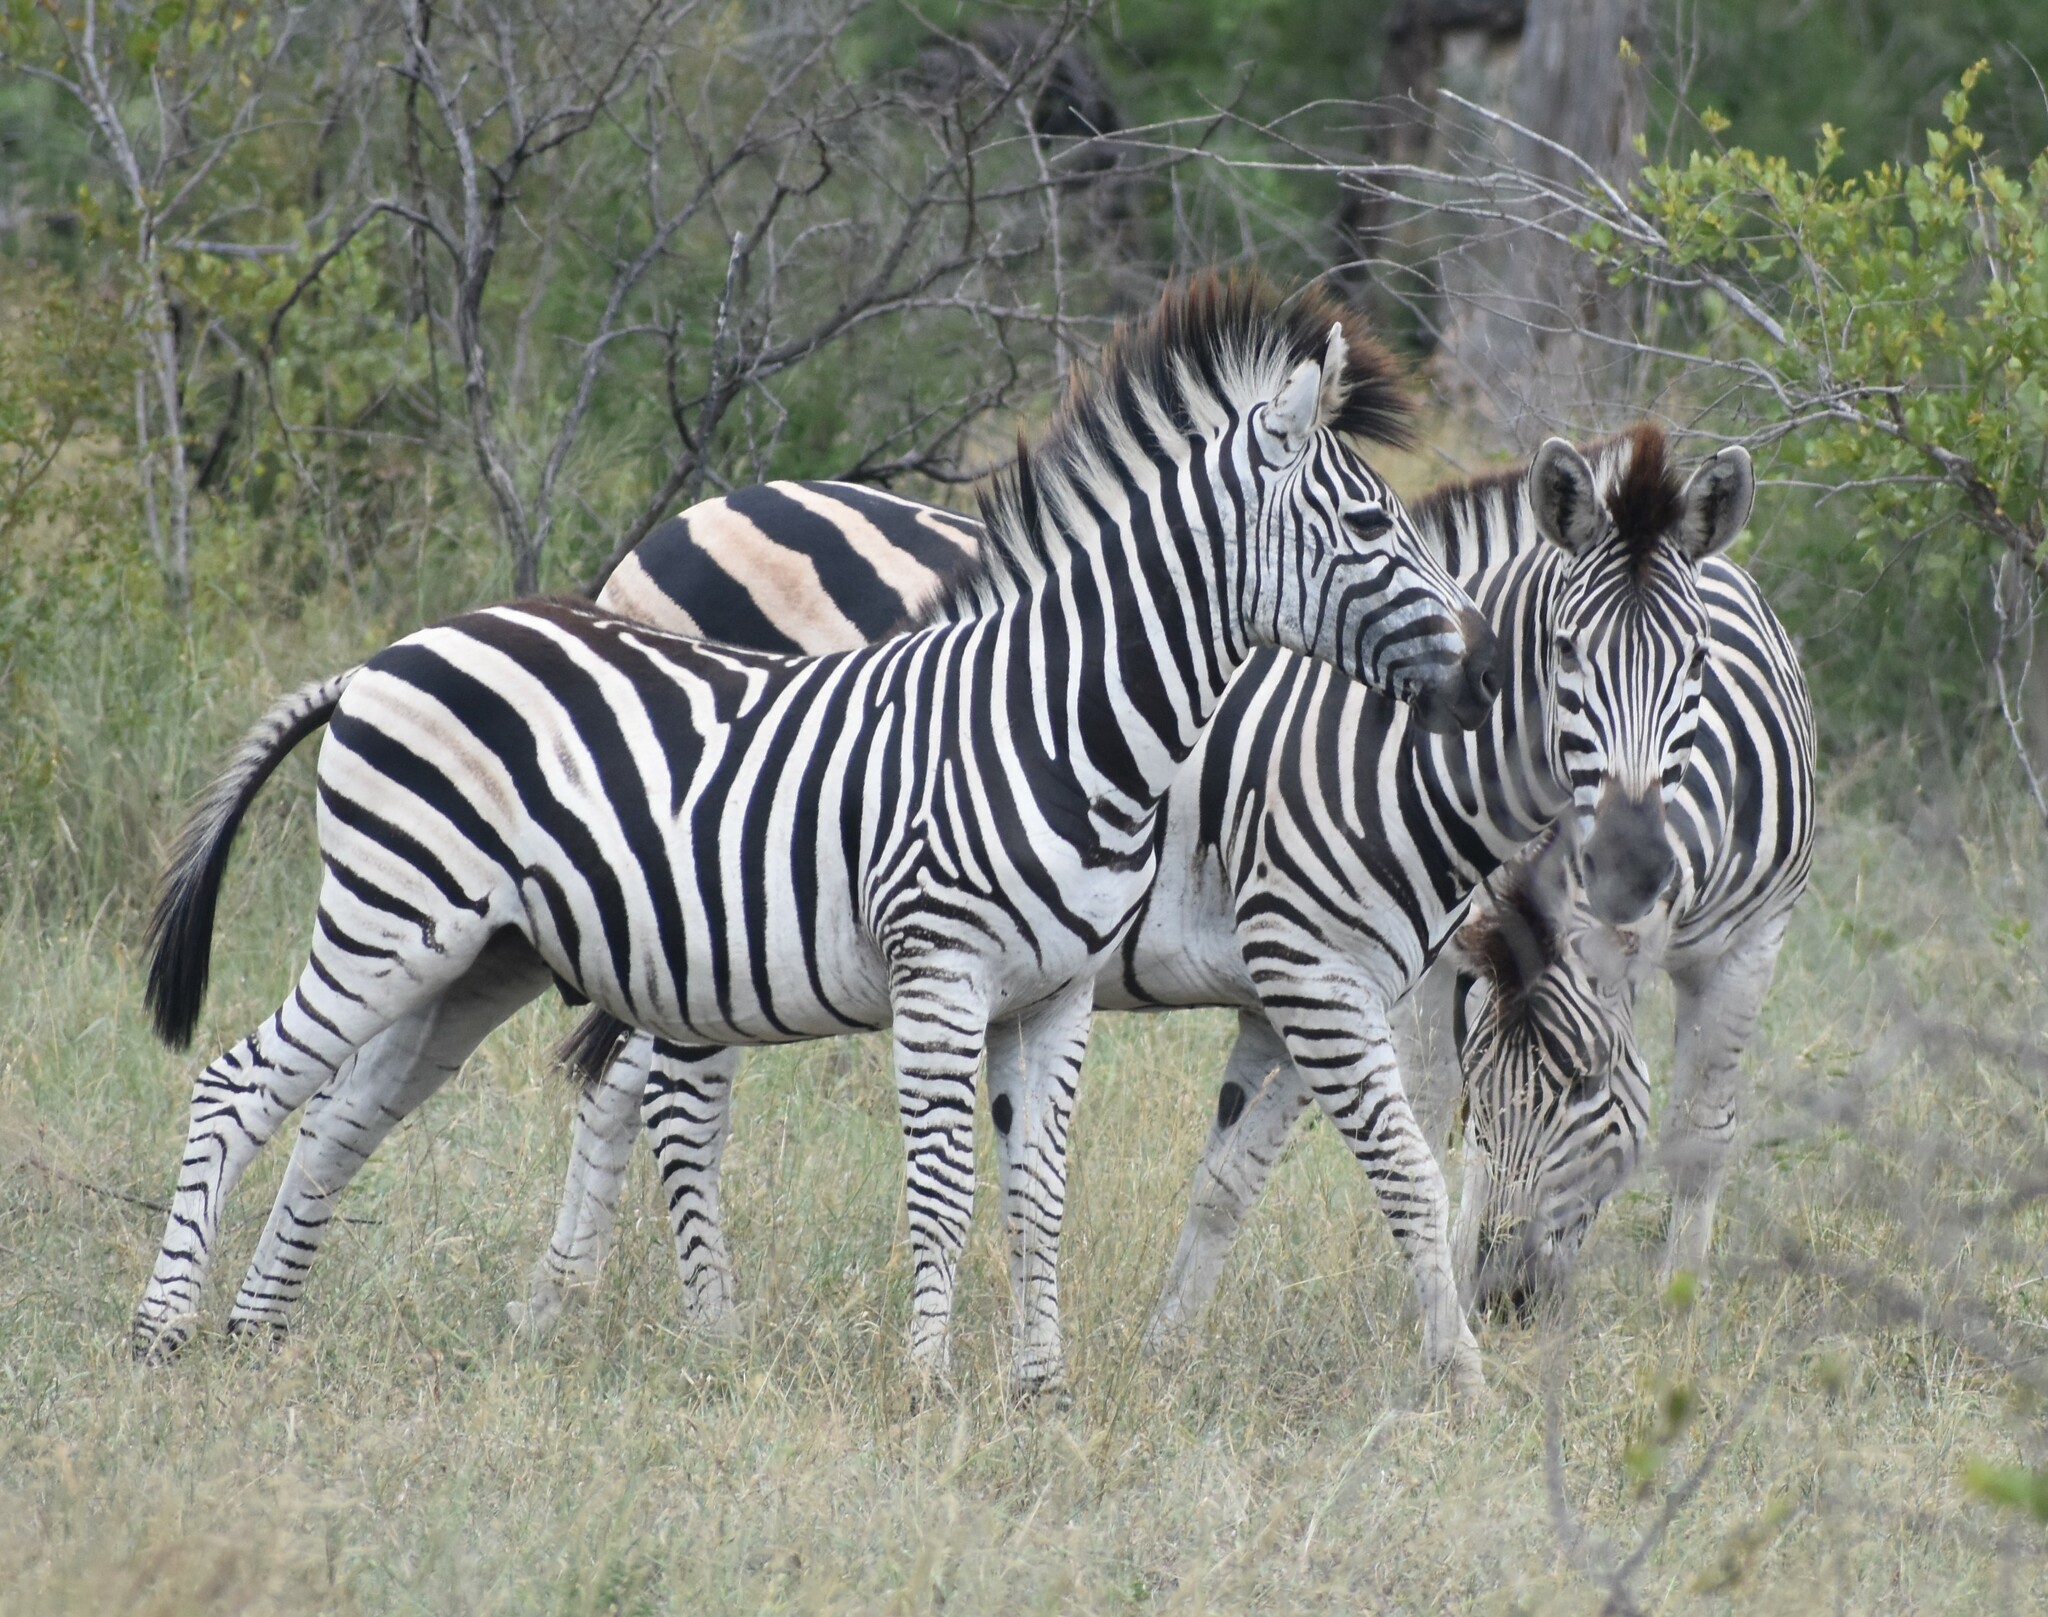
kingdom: Animalia
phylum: Chordata
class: Mammalia
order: Perissodactyla
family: Equidae
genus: Equus
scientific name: Equus quagga
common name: Plains zebra
